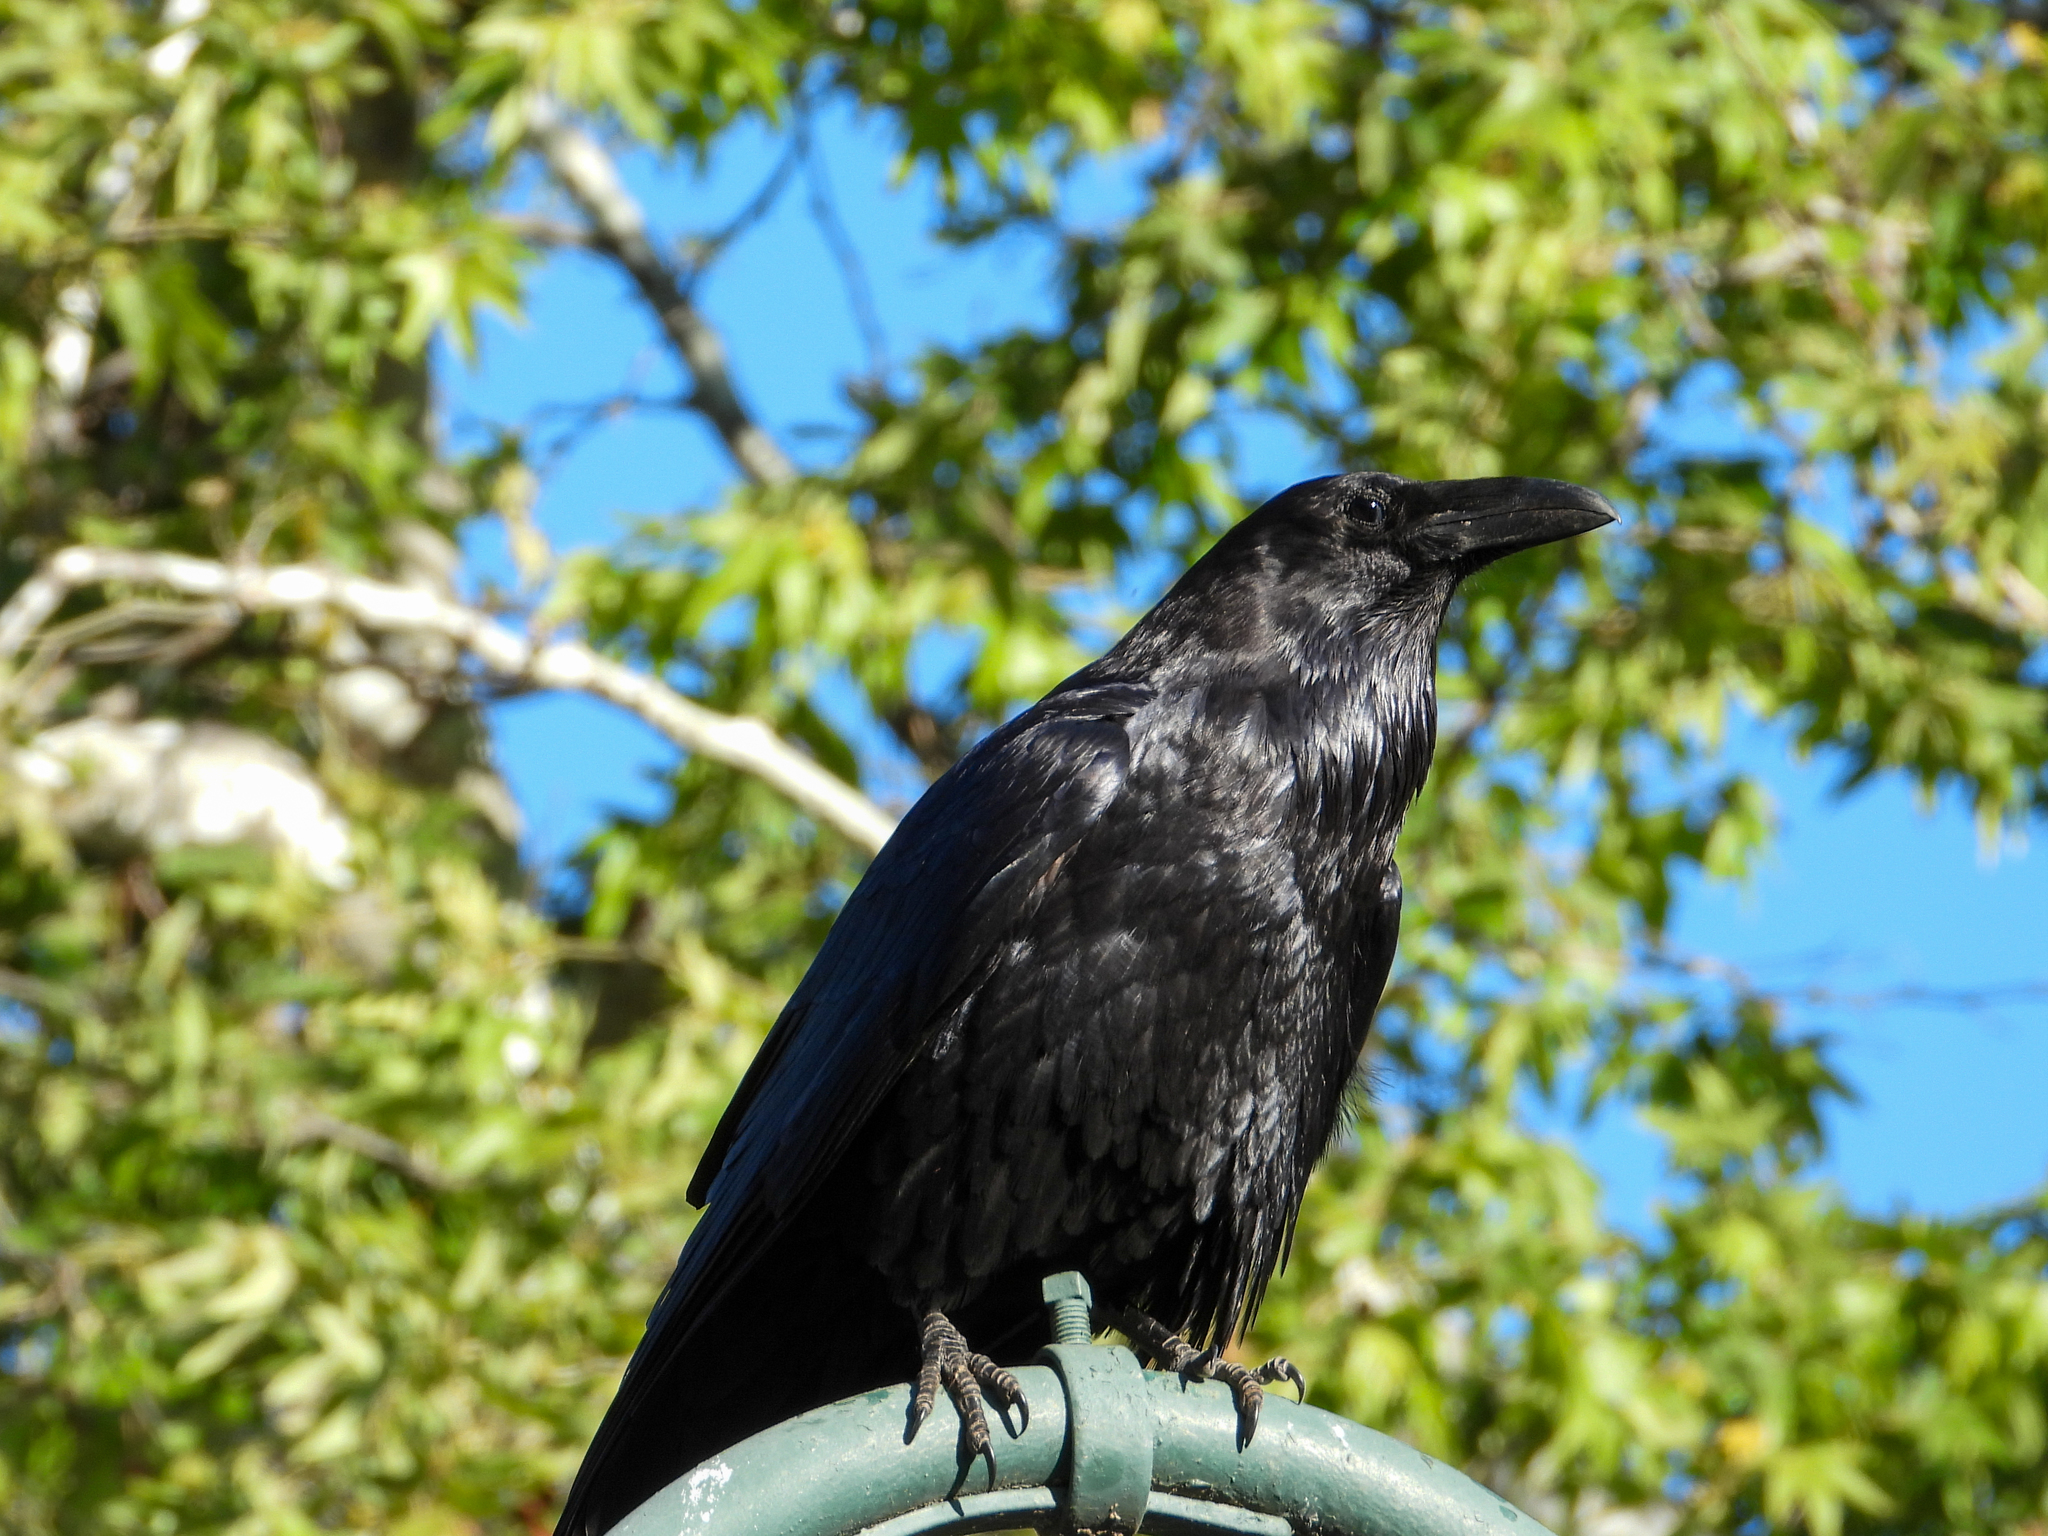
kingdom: Animalia
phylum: Chordata
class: Aves
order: Passeriformes
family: Corvidae
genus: Corvus
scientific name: Corvus corax
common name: Common raven
